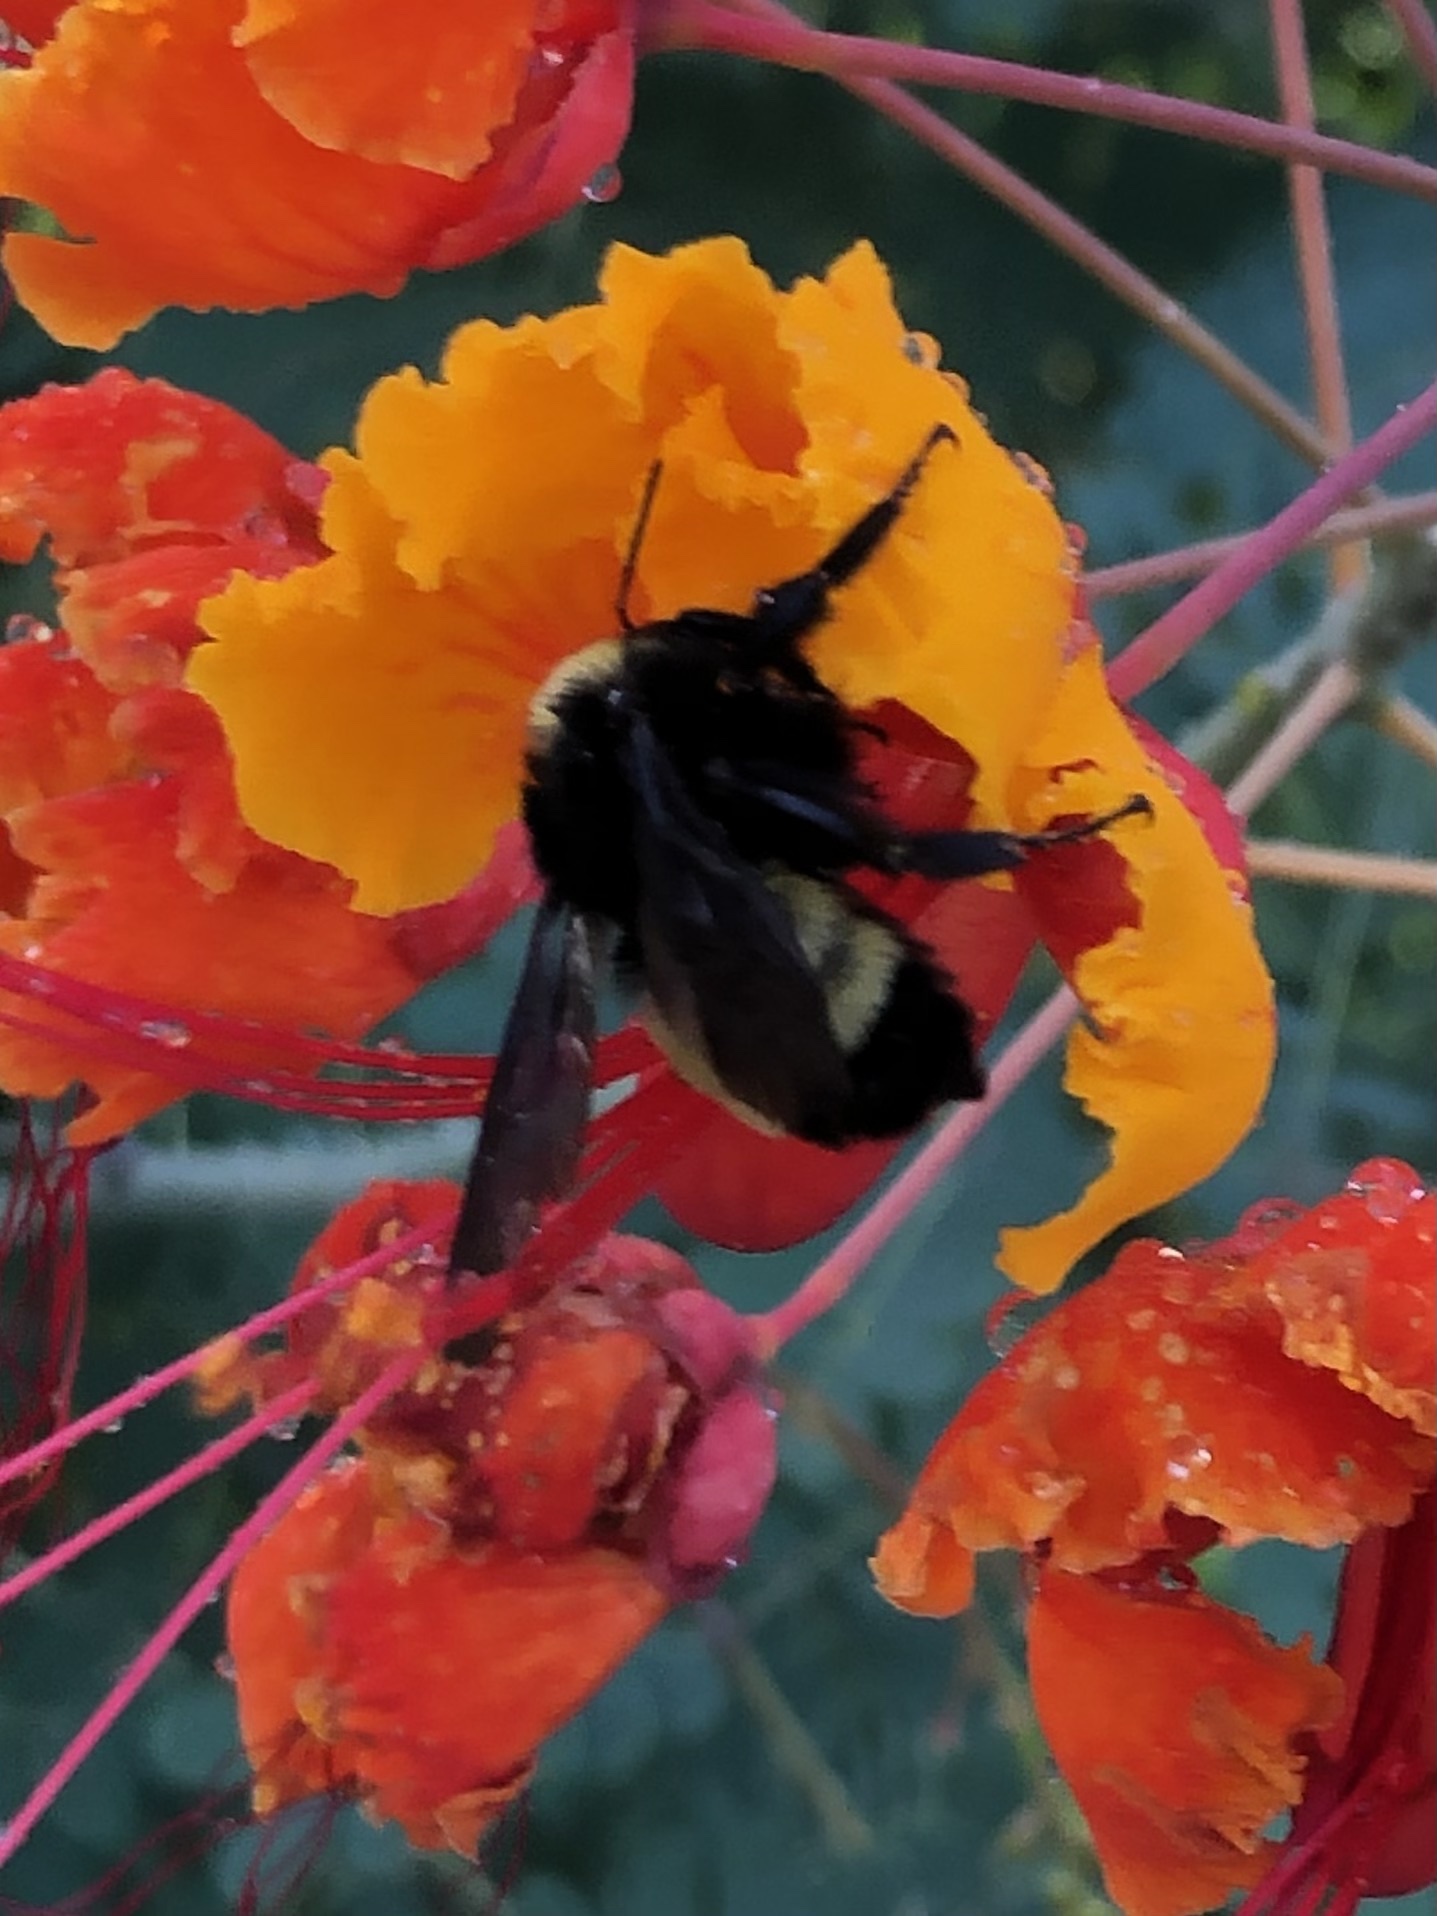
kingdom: Animalia
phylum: Arthropoda
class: Insecta
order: Hymenoptera
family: Apidae
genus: Bombus
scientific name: Bombus pensylvanicus
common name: Bumble bee
